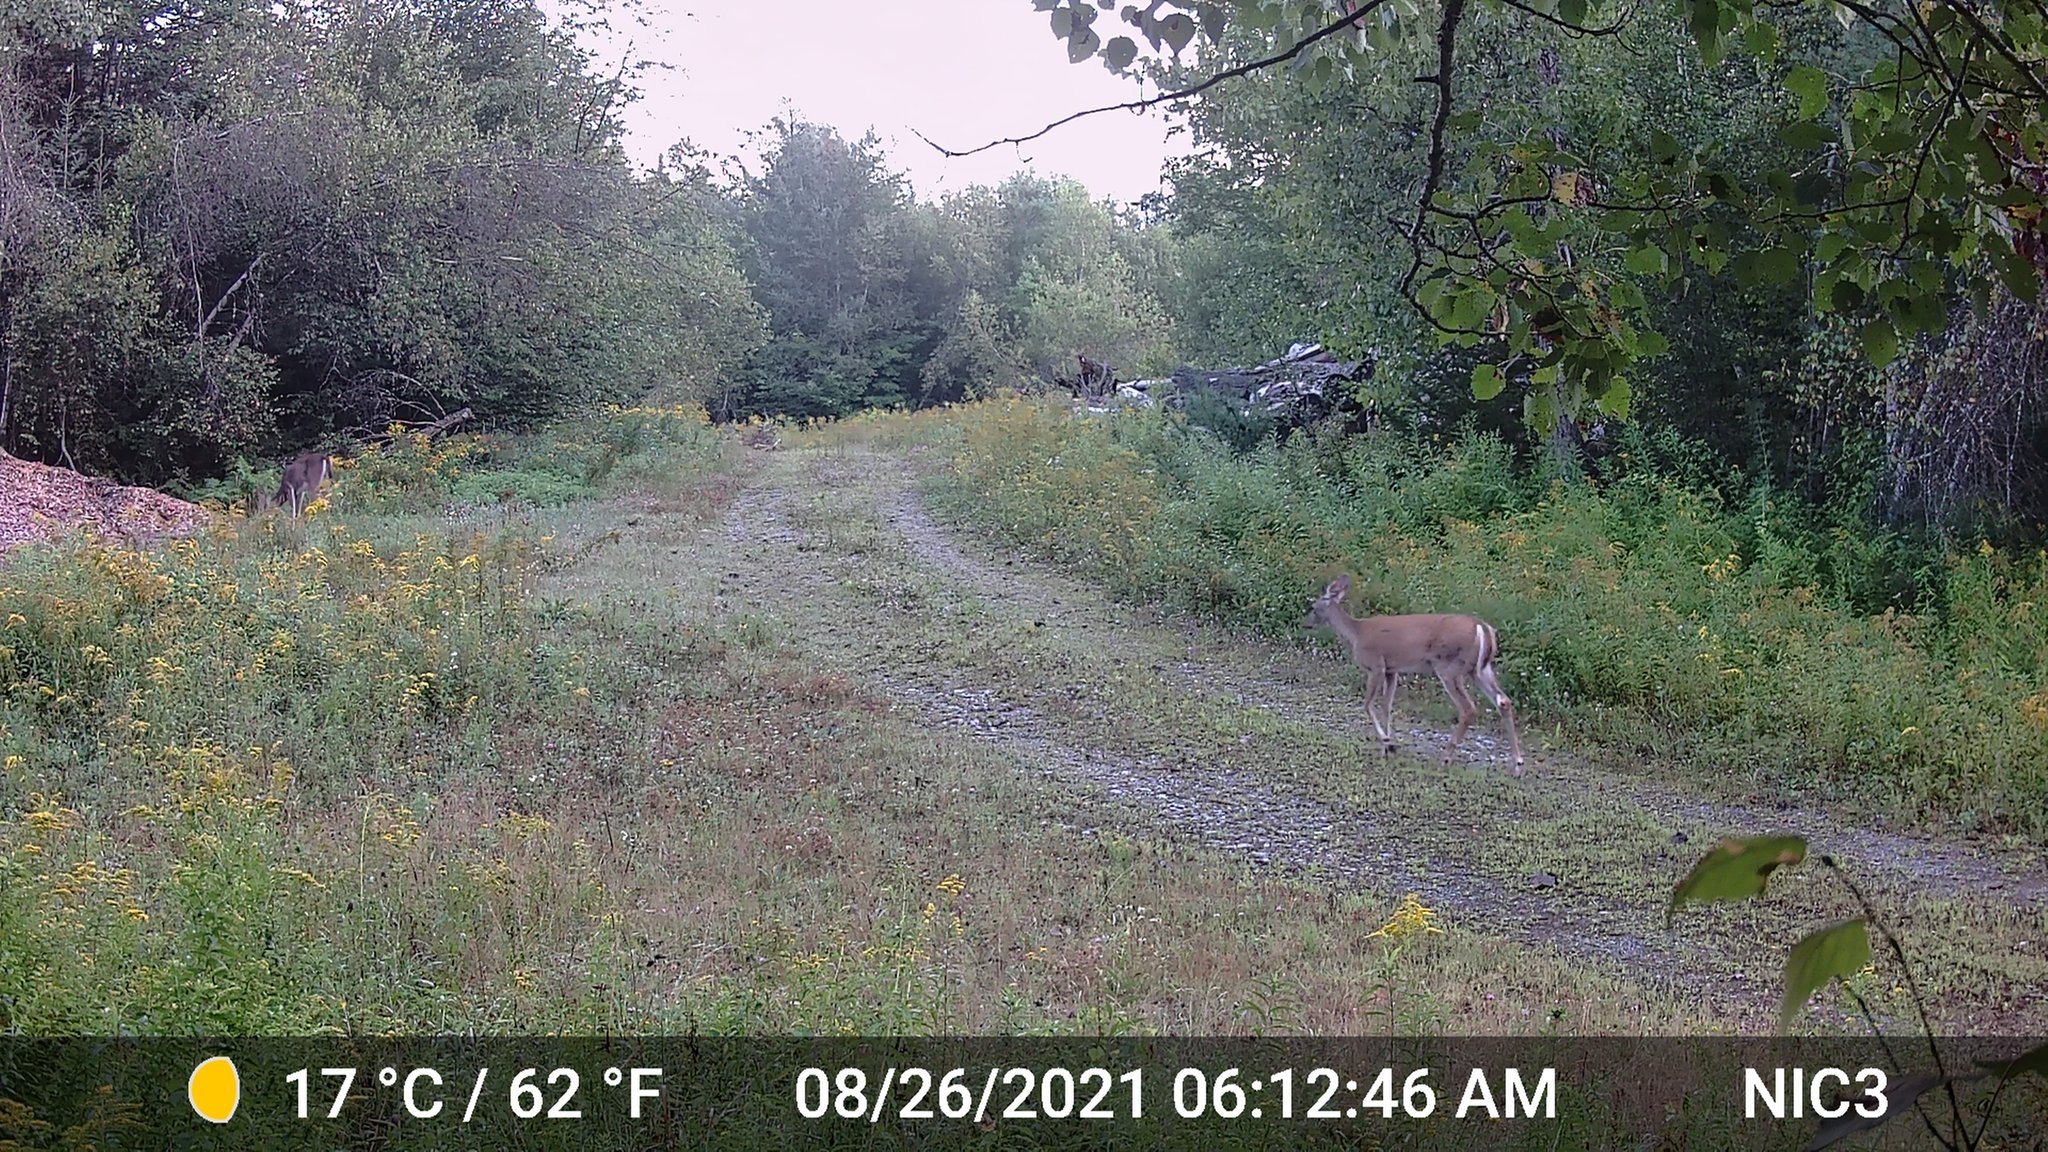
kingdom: Animalia
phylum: Chordata
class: Mammalia
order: Artiodactyla
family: Cervidae
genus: Odocoileus
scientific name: Odocoileus virginianus
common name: White-tailed deer
